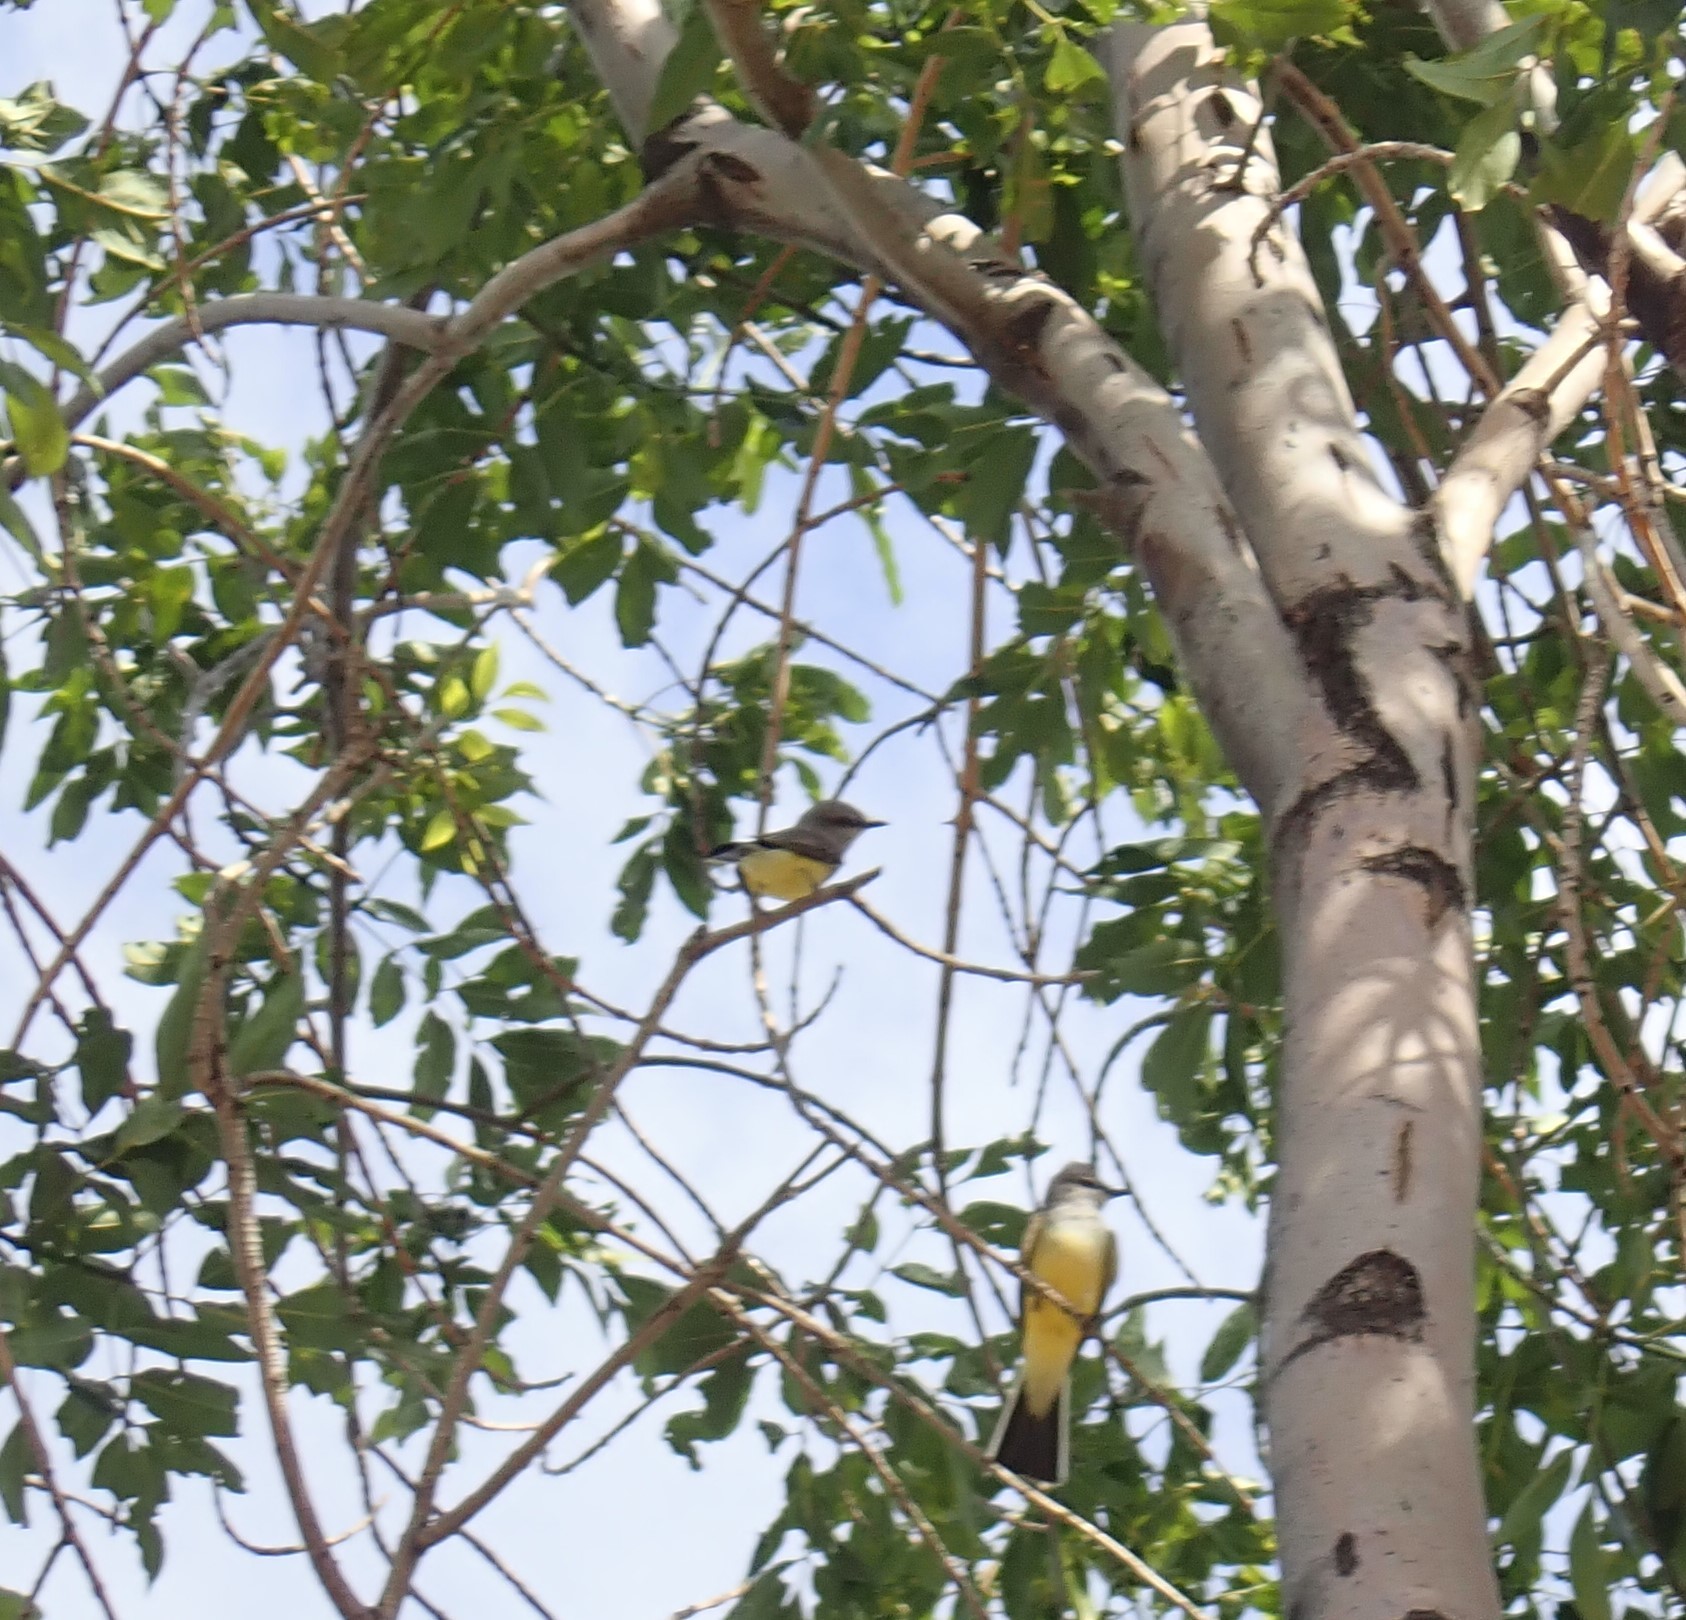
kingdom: Animalia
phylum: Chordata
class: Aves
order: Passeriformes
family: Tyrannidae
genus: Tyrannus
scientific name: Tyrannus verticalis
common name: Western kingbird
